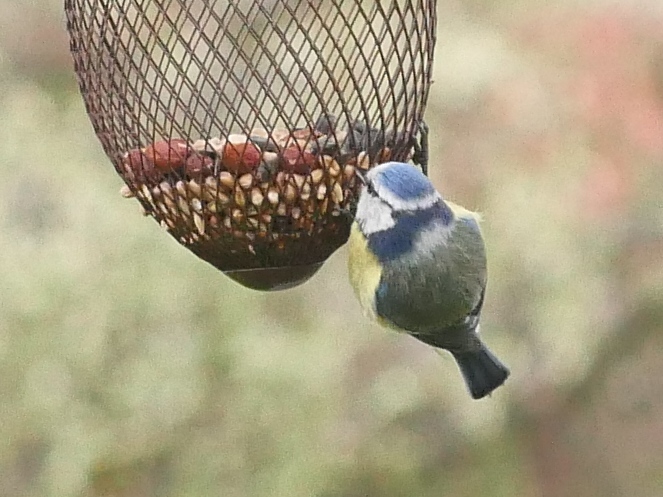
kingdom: Animalia
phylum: Chordata
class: Aves
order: Passeriformes
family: Paridae
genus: Cyanistes
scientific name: Cyanistes caeruleus
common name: Eurasian blue tit
